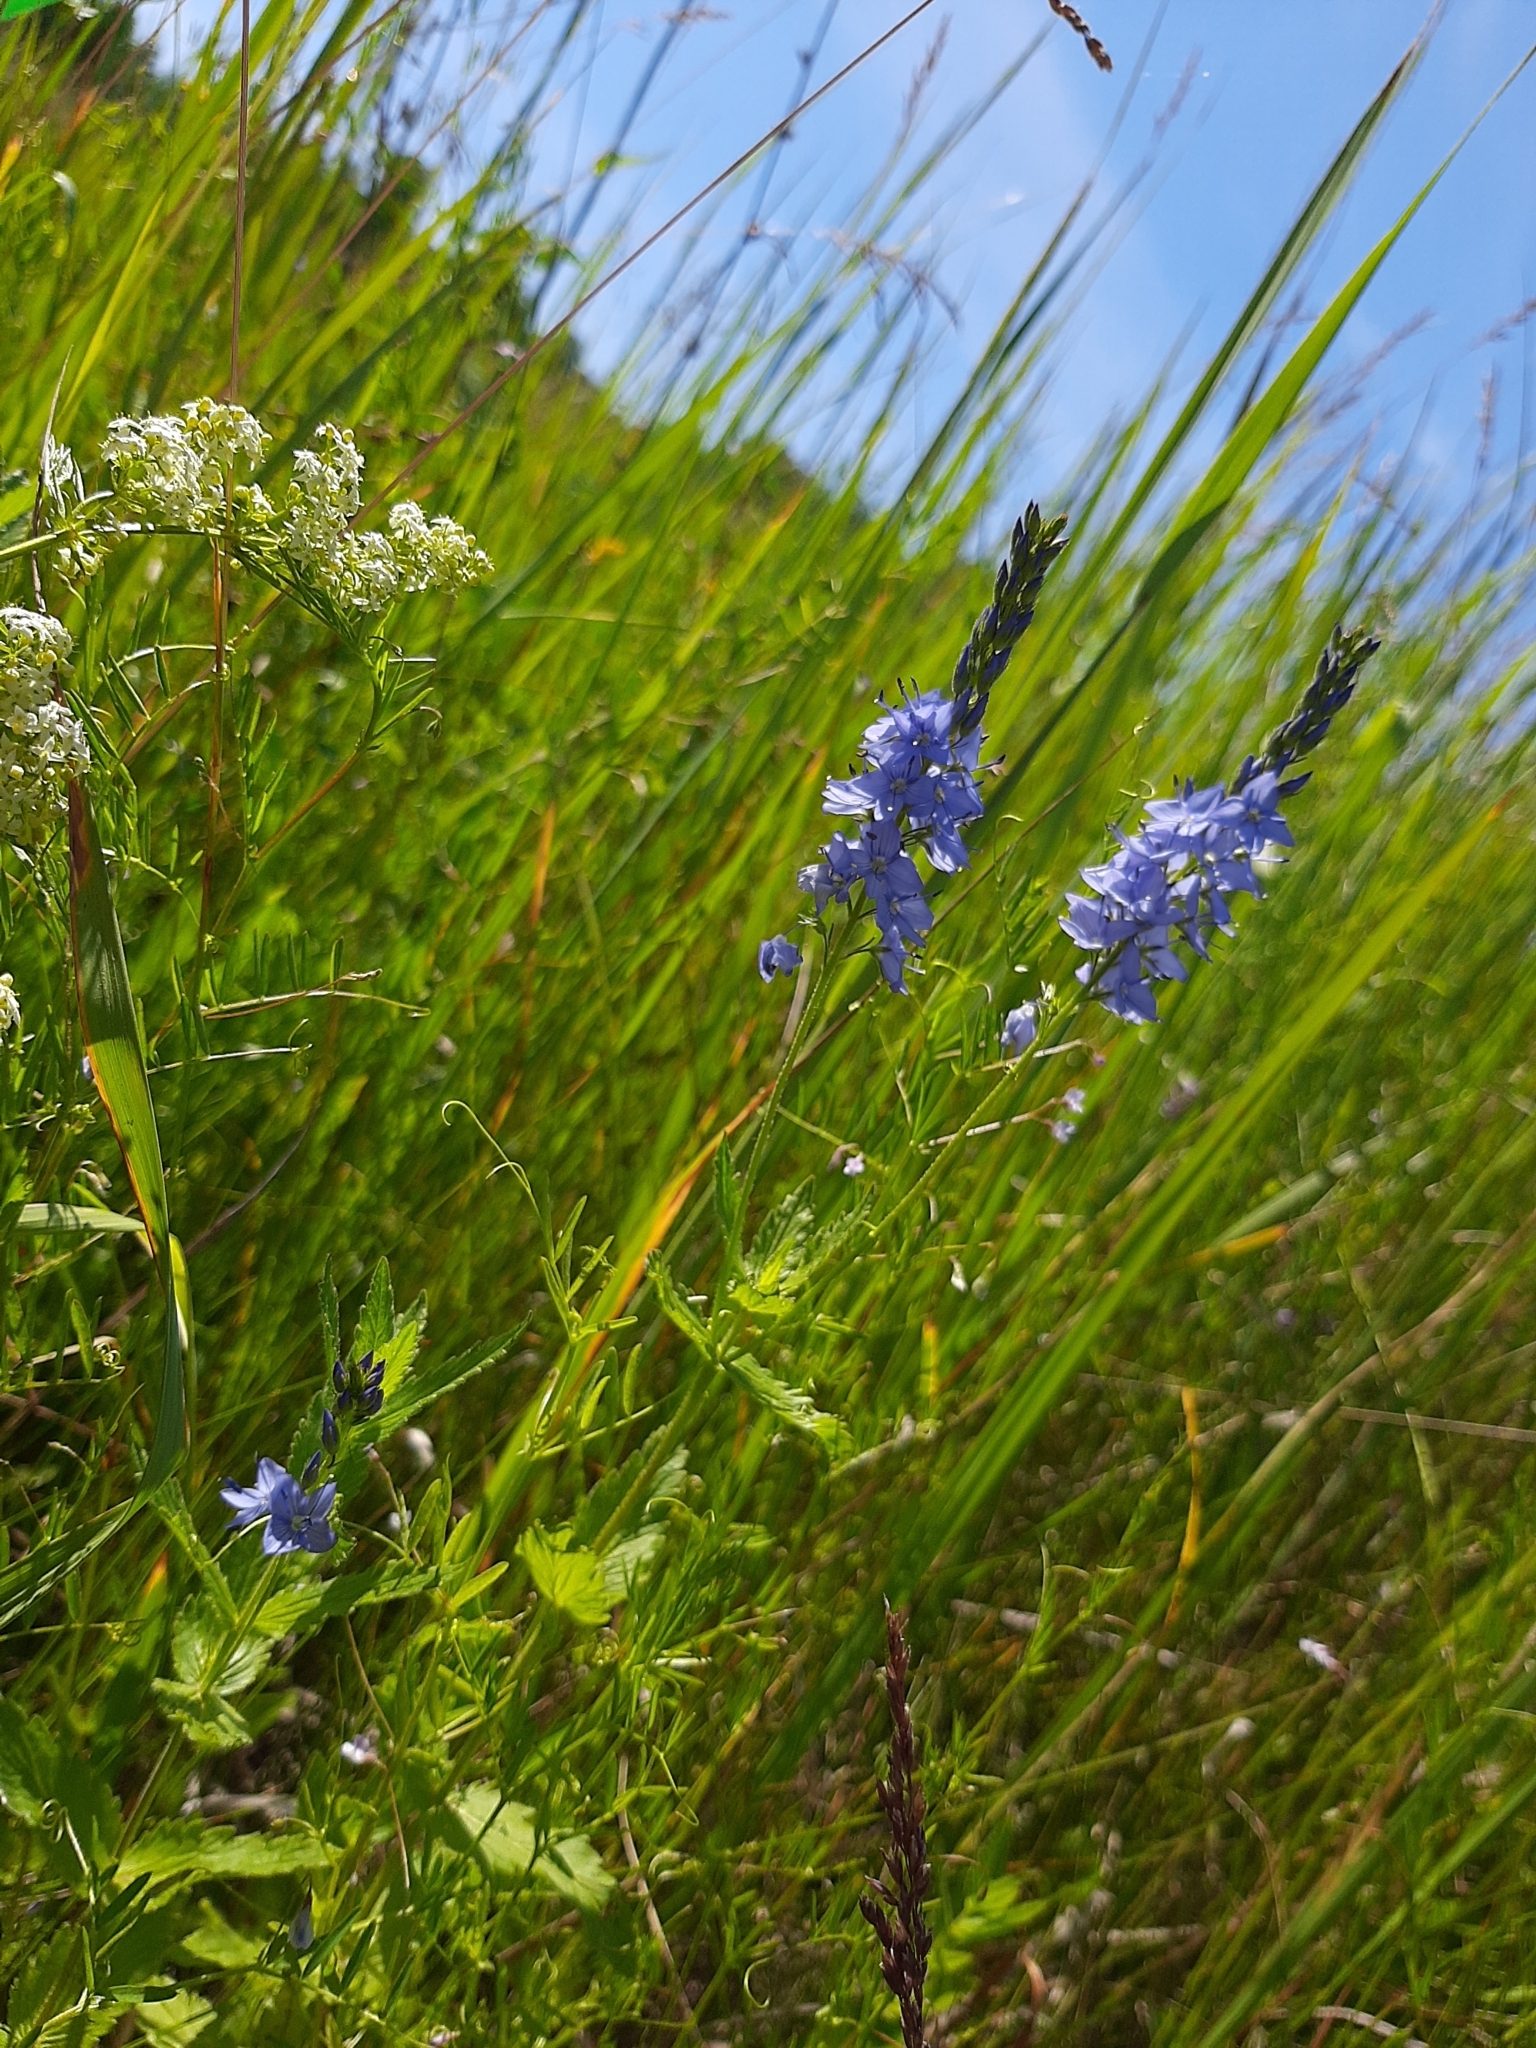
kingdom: Plantae
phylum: Tracheophyta
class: Magnoliopsida
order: Lamiales
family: Plantaginaceae
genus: Veronica
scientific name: Veronica teucrium
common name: Large speedwell
